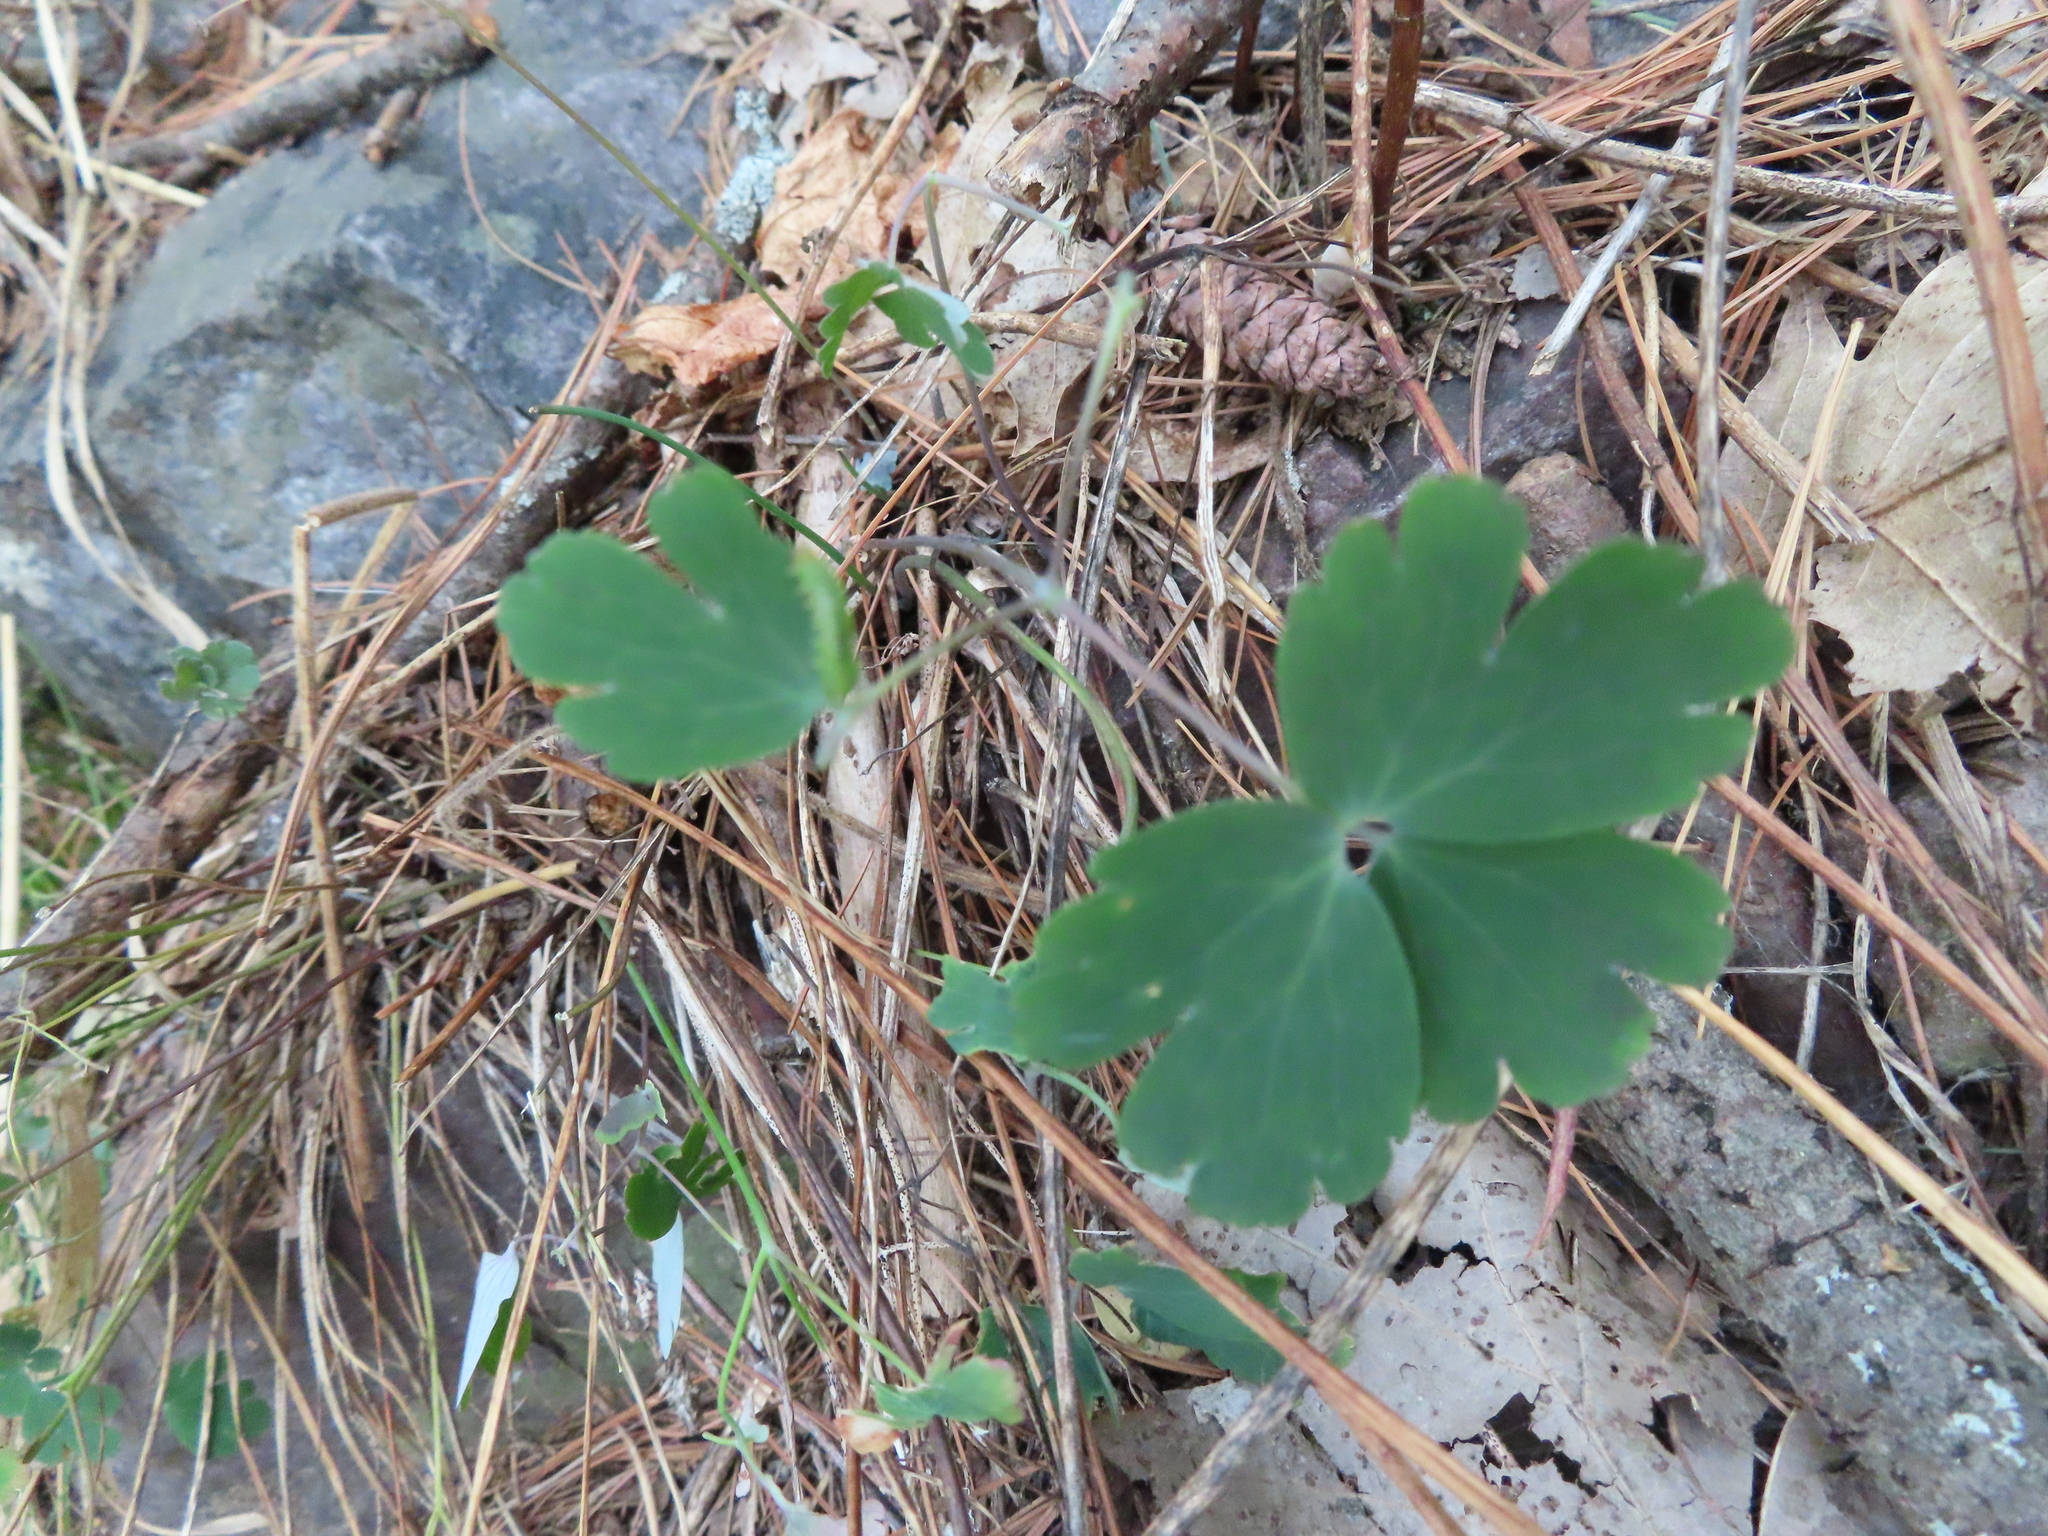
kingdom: Plantae
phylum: Tracheophyta
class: Magnoliopsida
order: Ranunculales
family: Ranunculaceae
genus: Aquilegia
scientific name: Aquilegia canadensis
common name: American columbine
